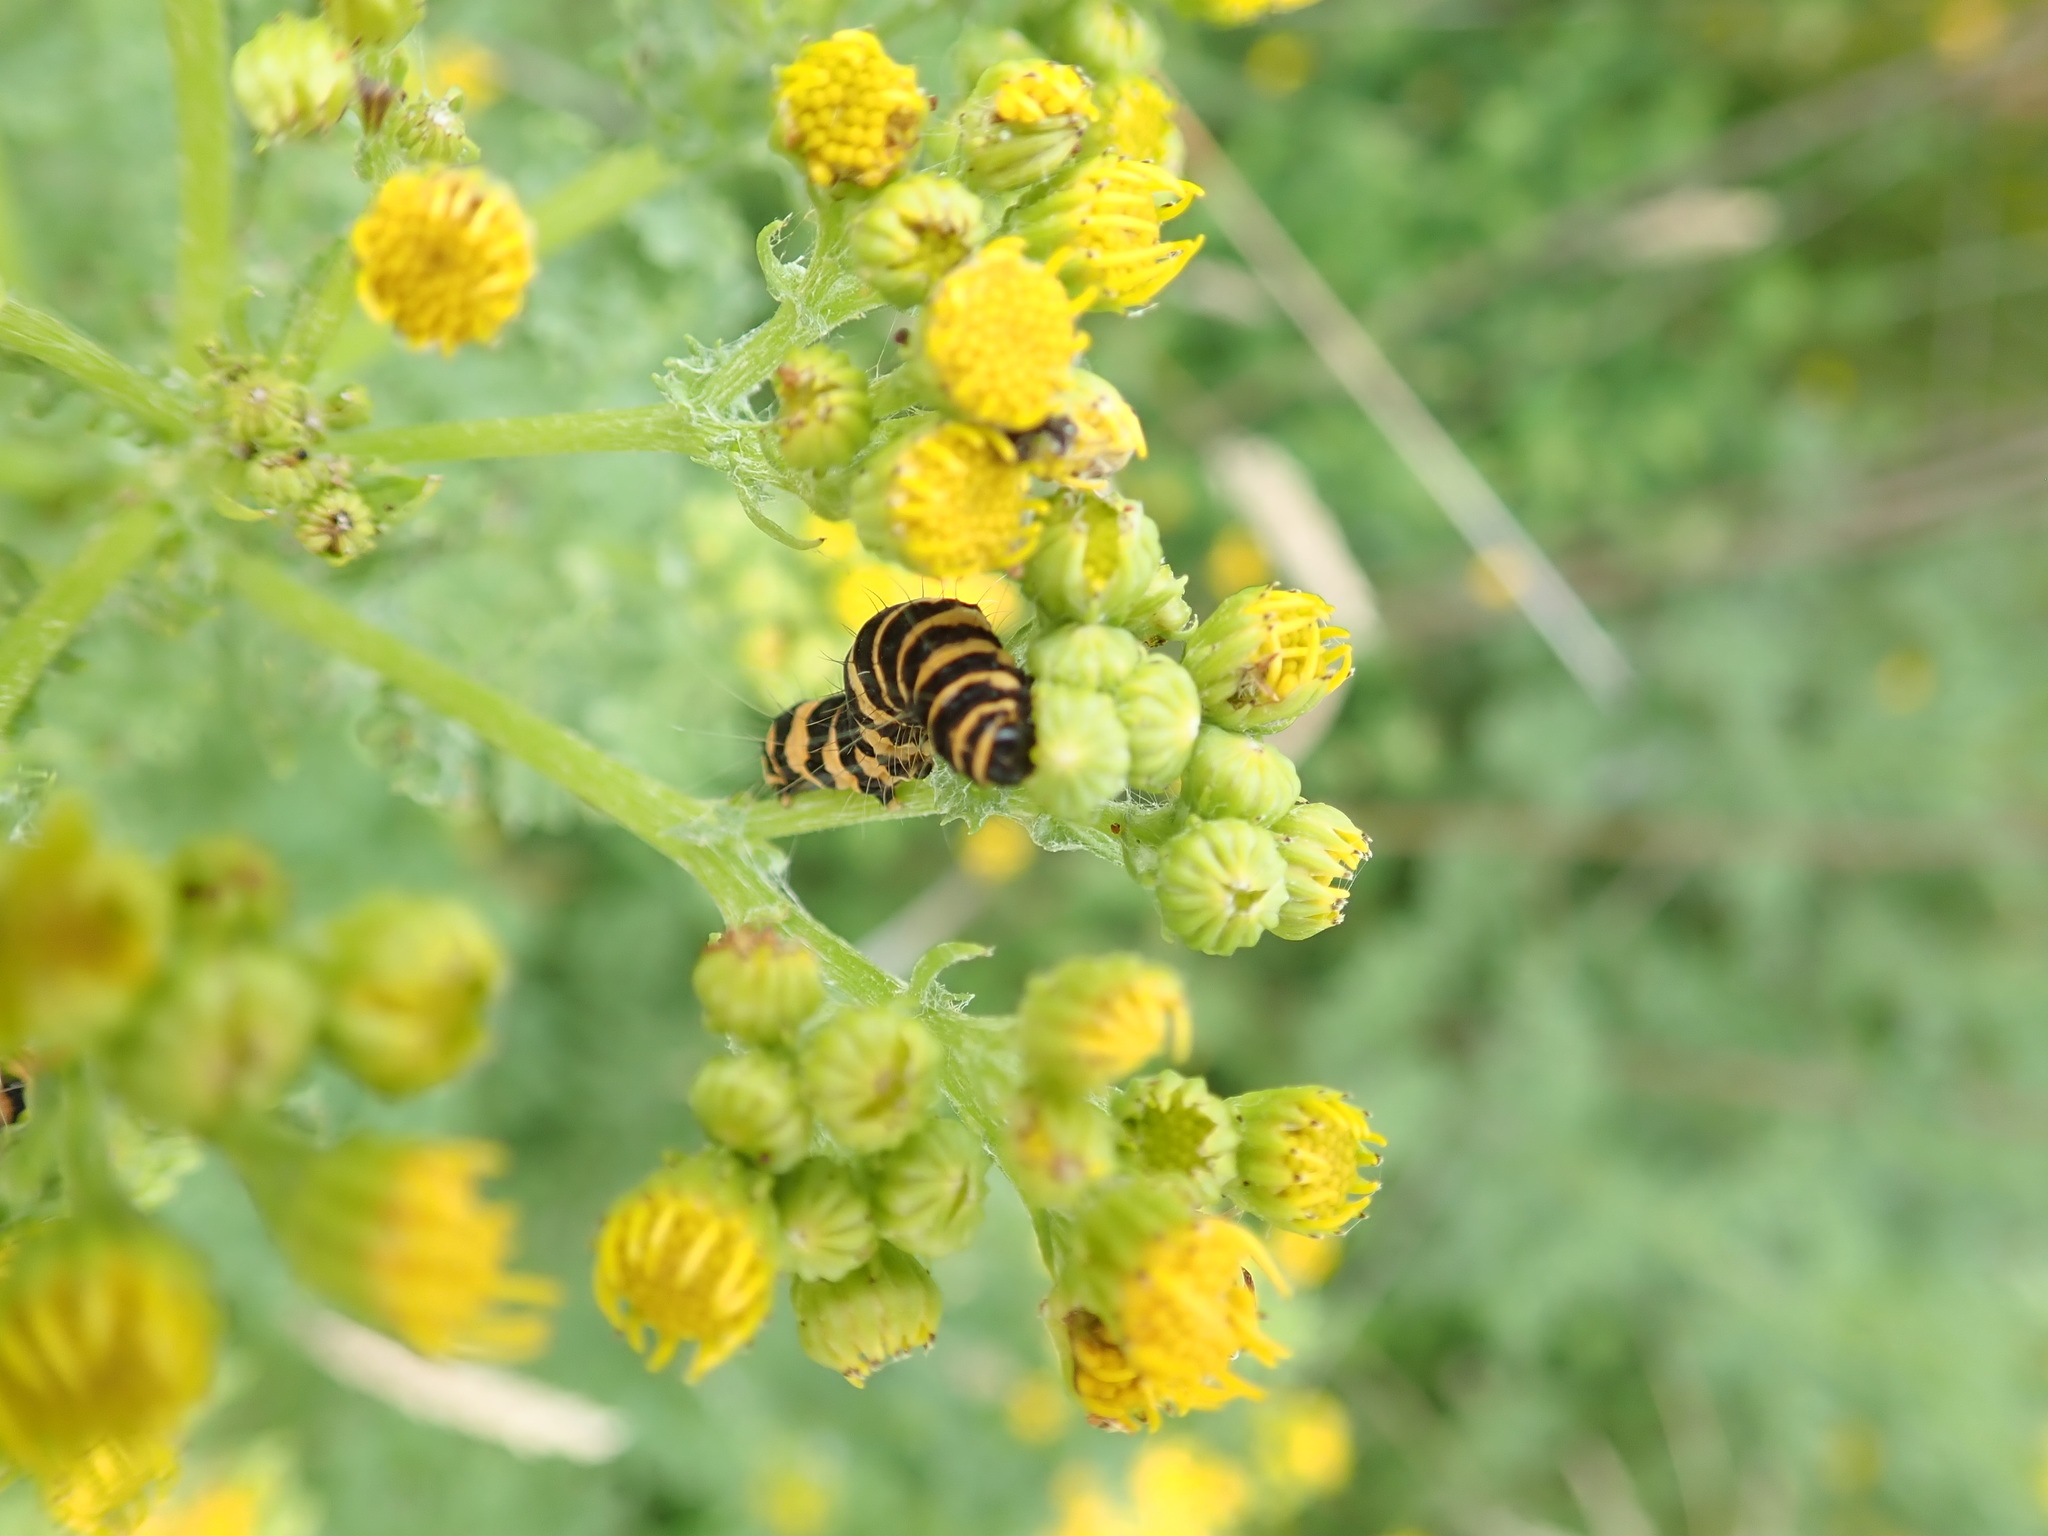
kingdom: Animalia
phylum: Arthropoda
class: Insecta
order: Lepidoptera
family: Erebidae
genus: Tyria
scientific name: Tyria jacobaeae
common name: Cinnabar
